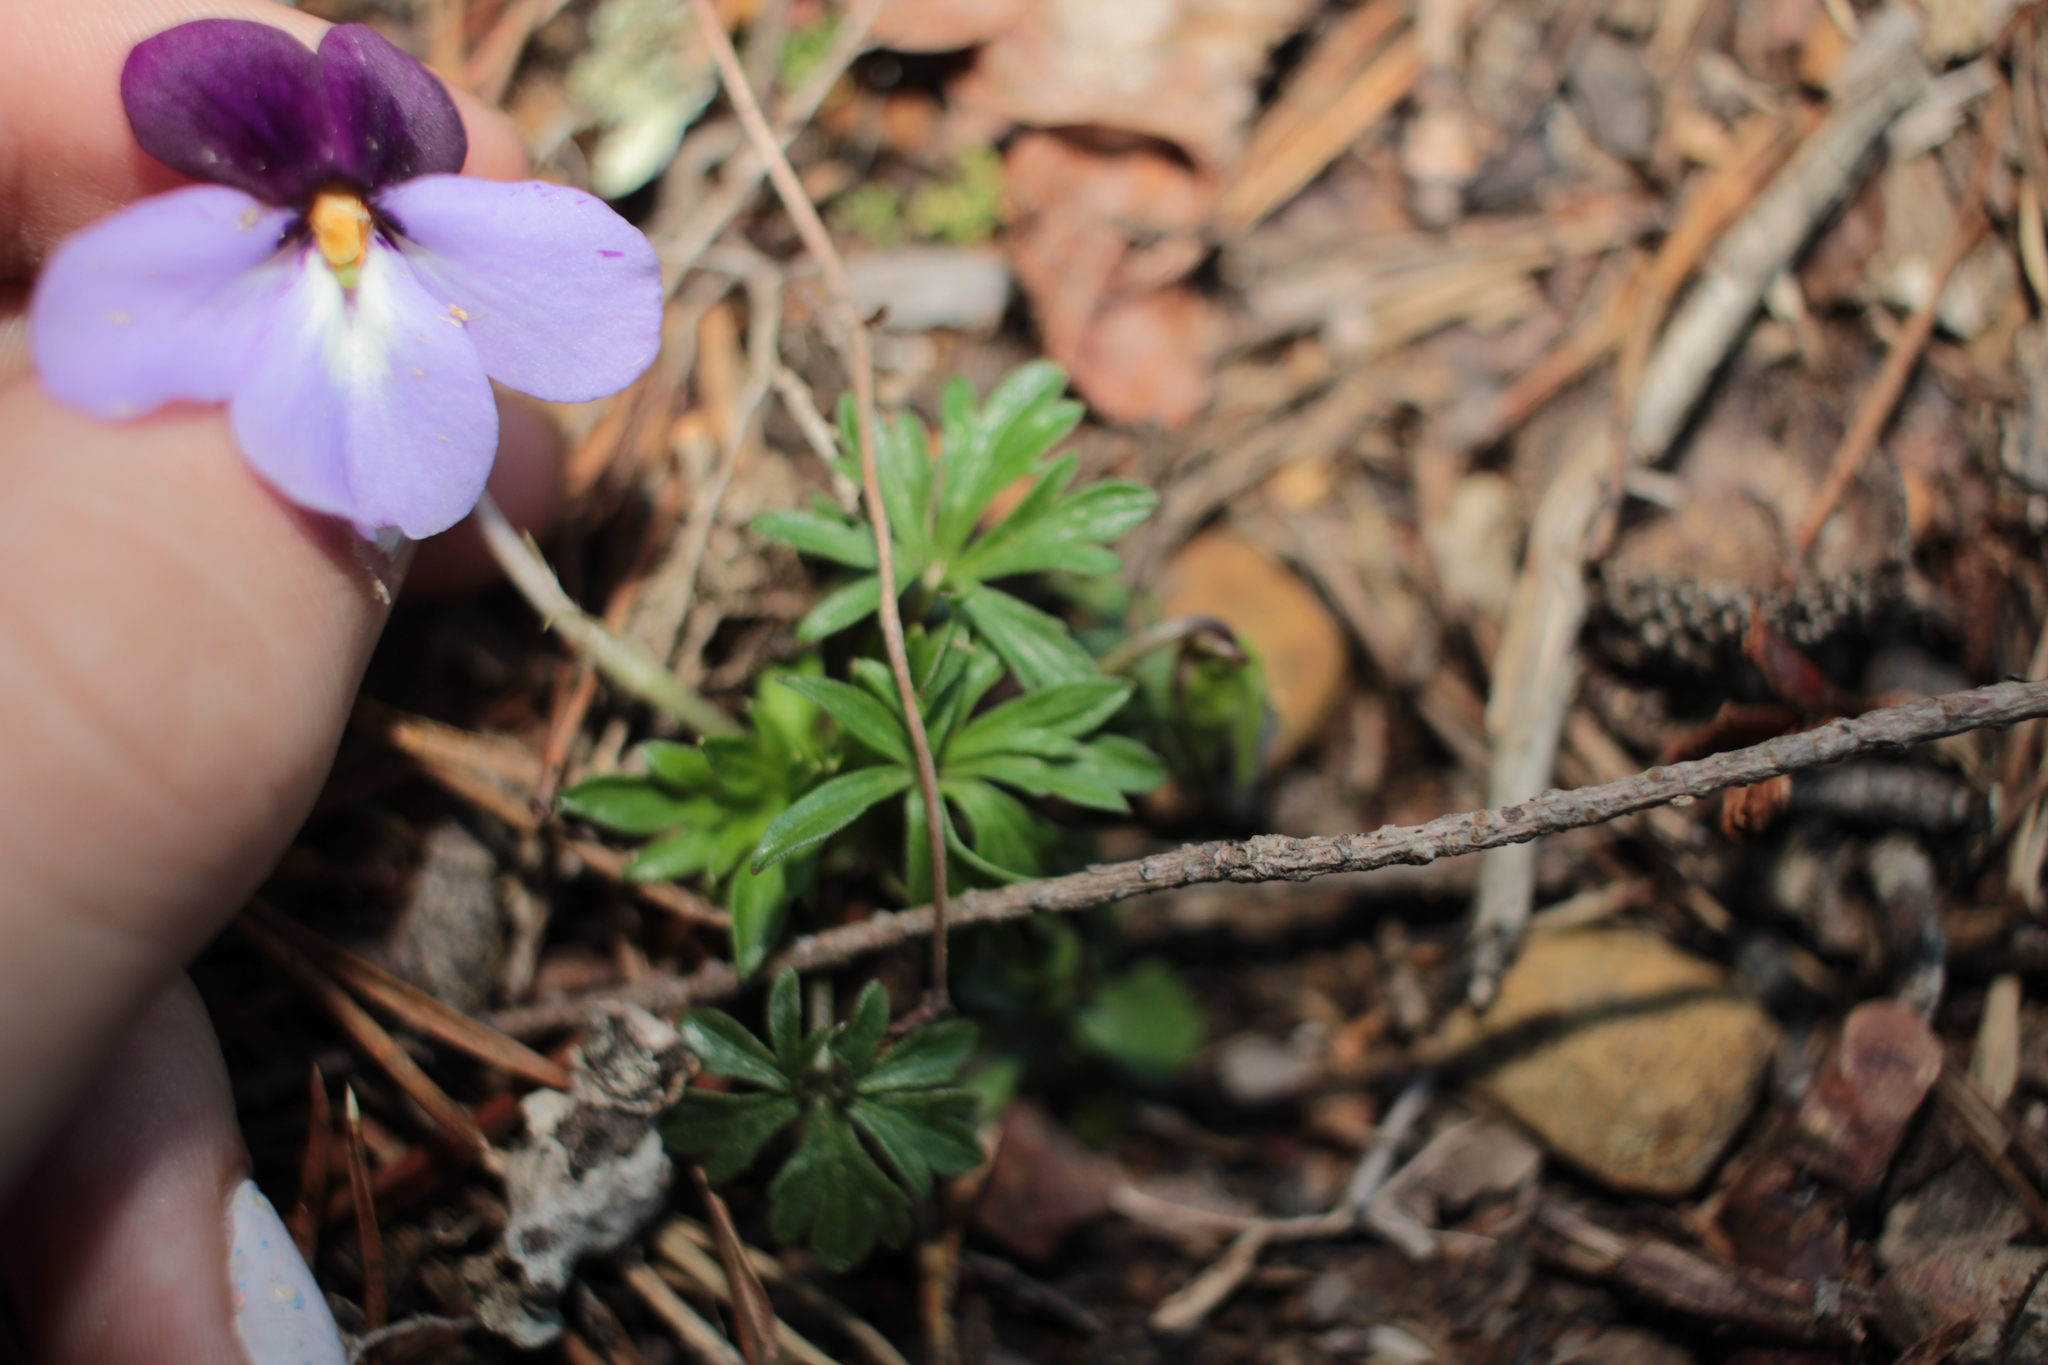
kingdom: Plantae
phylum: Tracheophyta
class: Magnoliopsida
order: Malpighiales
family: Violaceae
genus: Viola
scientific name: Viola pedata
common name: Pansy violet
